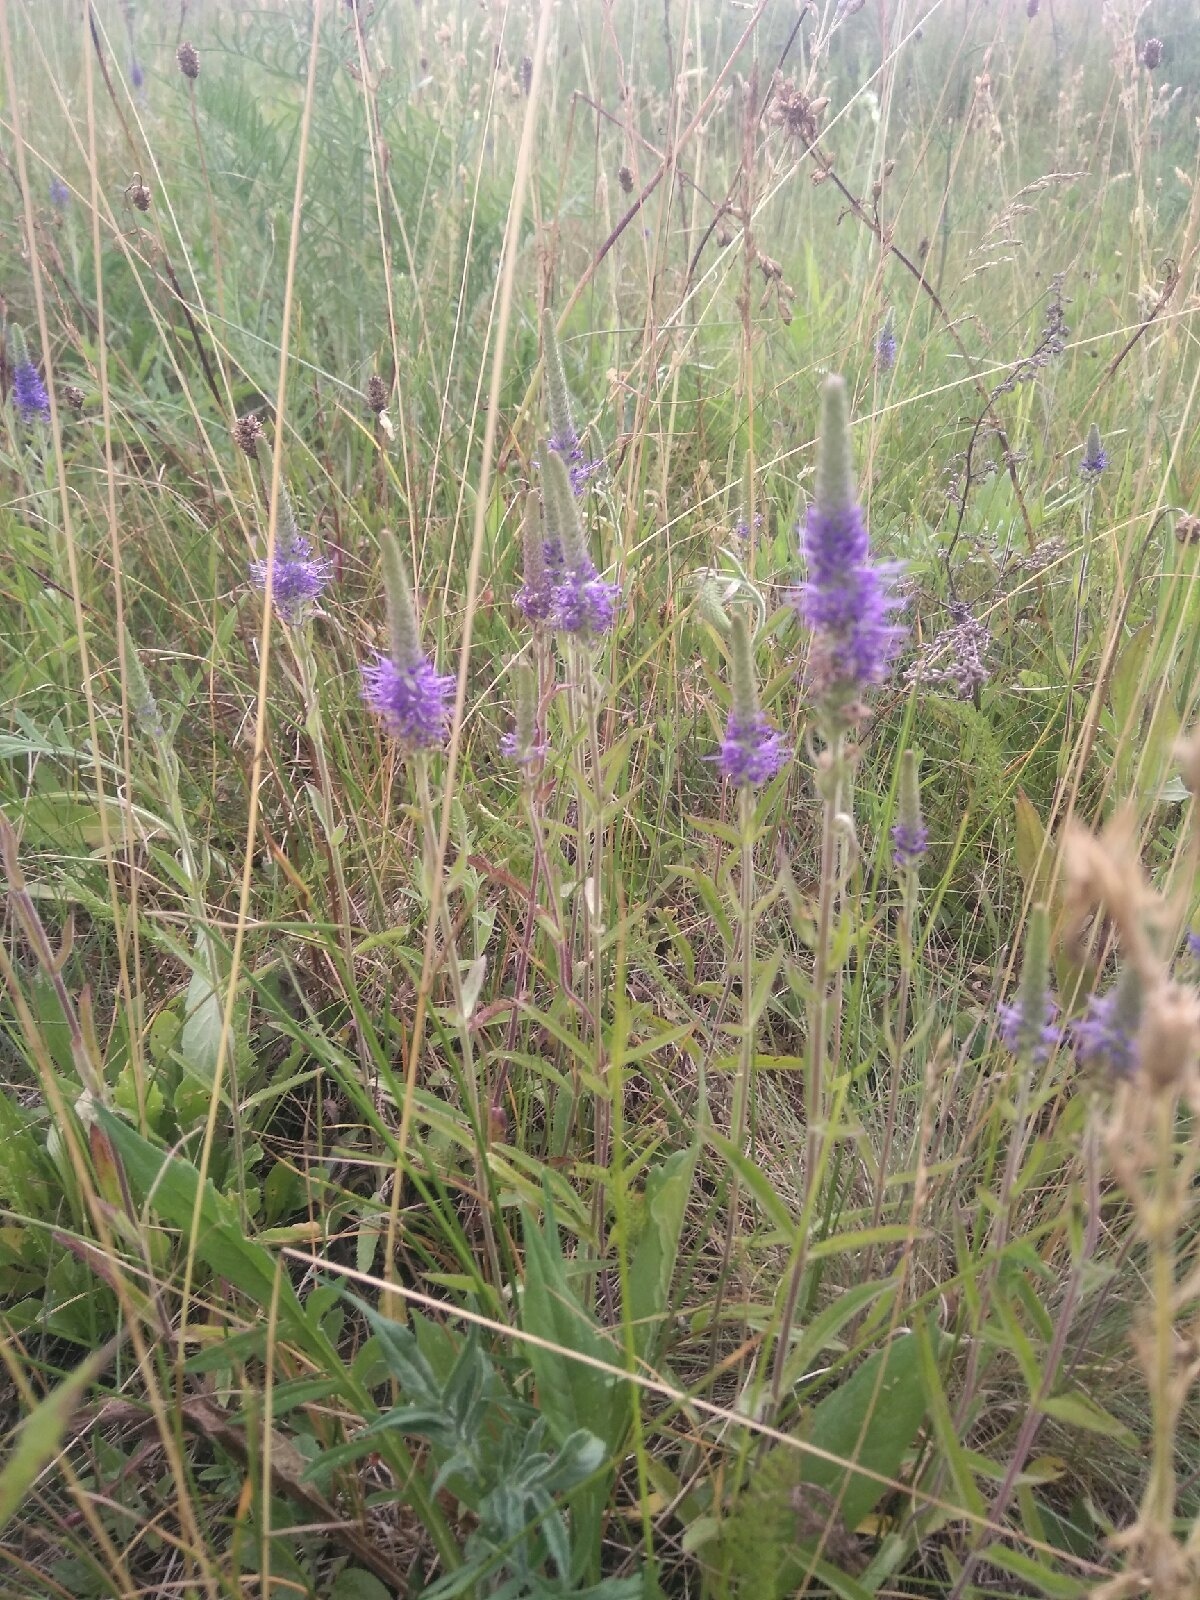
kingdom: Plantae
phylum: Tracheophyta
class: Magnoliopsida
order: Lamiales
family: Plantaginaceae
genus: Veronica
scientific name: Veronica spicata
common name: Spiked speedwell
